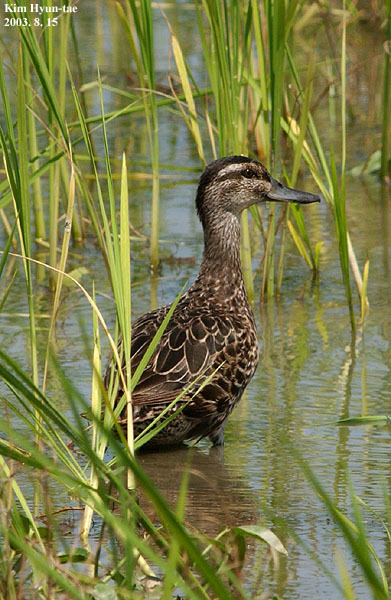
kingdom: Animalia
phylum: Chordata
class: Aves
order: Anseriformes
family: Anatidae
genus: Anas
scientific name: Anas crecca
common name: Eurasian teal
